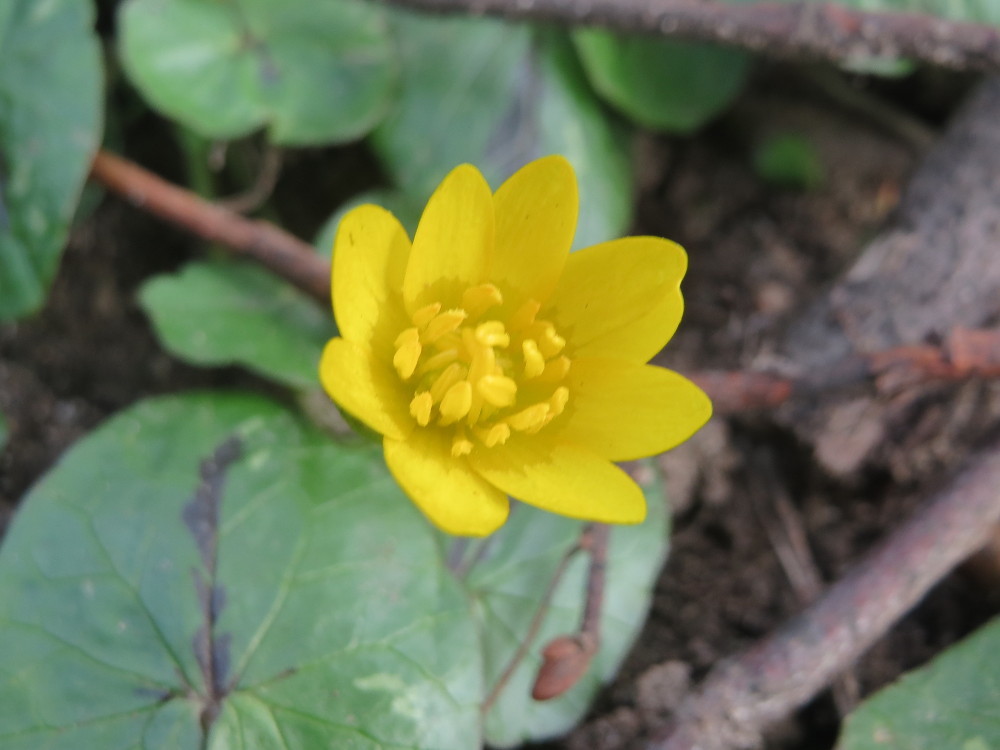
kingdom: Plantae
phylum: Tracheophyta
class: Magnoliopsida
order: Ranunculales
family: Ranunculaceae
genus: Ficaria
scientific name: Ficaria verna
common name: Lesser celandine
